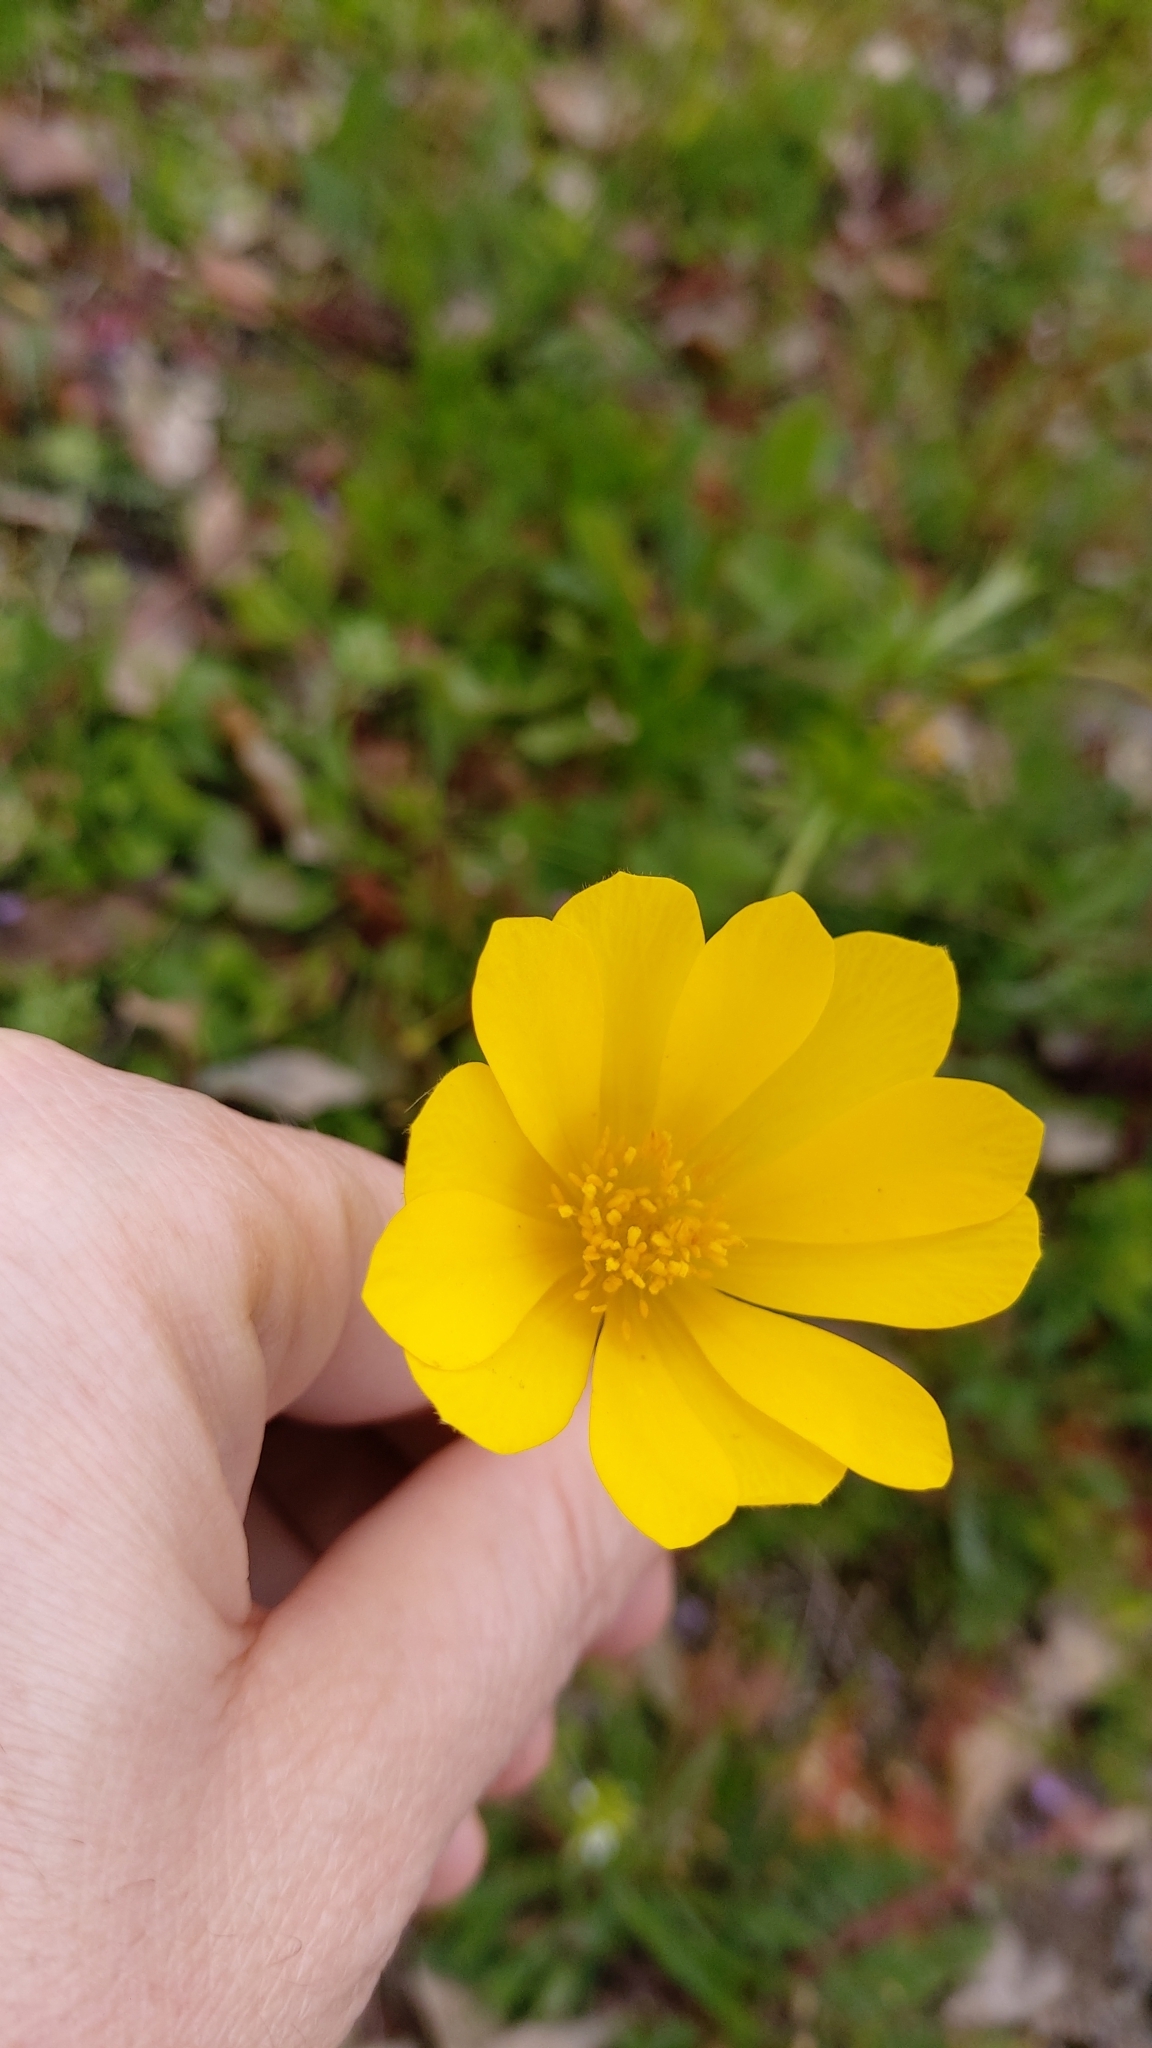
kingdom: Plantae
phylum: Tracheophyta
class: Magnoliopsida
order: Ranunculales
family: Ranunculaceae
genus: Anemone
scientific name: Anemone palmata
